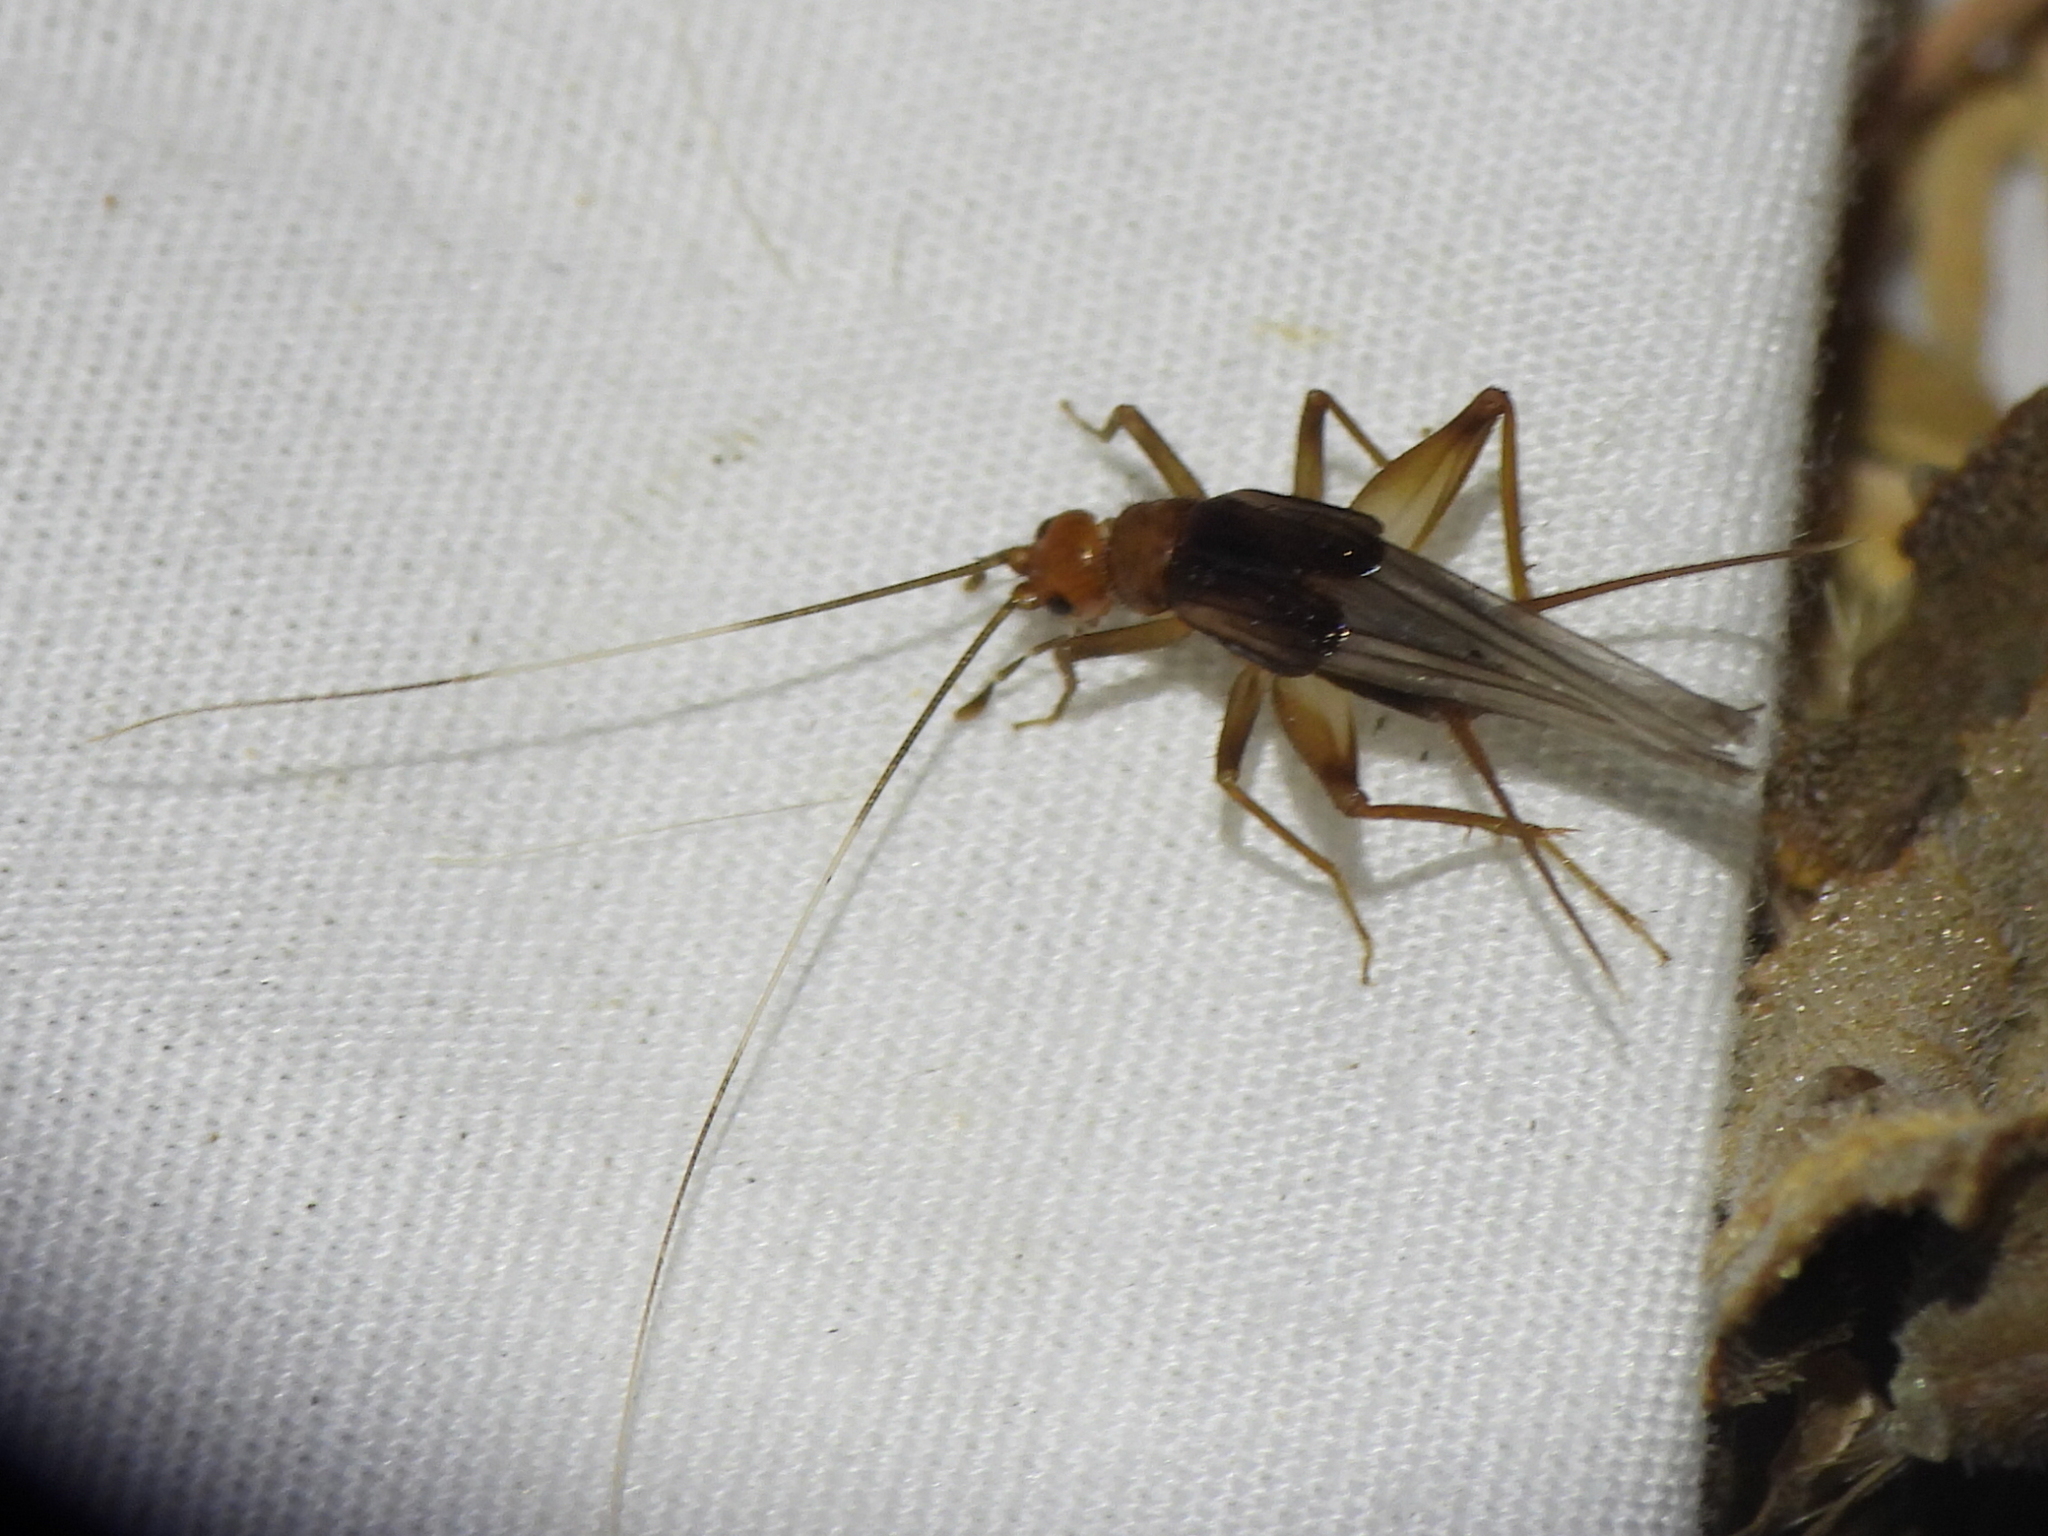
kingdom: Animalia
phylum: Arthropoda
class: Insecta
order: Orthoptera
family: Gryllidae
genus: Trigonidomimus
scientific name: Trigonidomimus belfragei
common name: Belfrage's cricket
